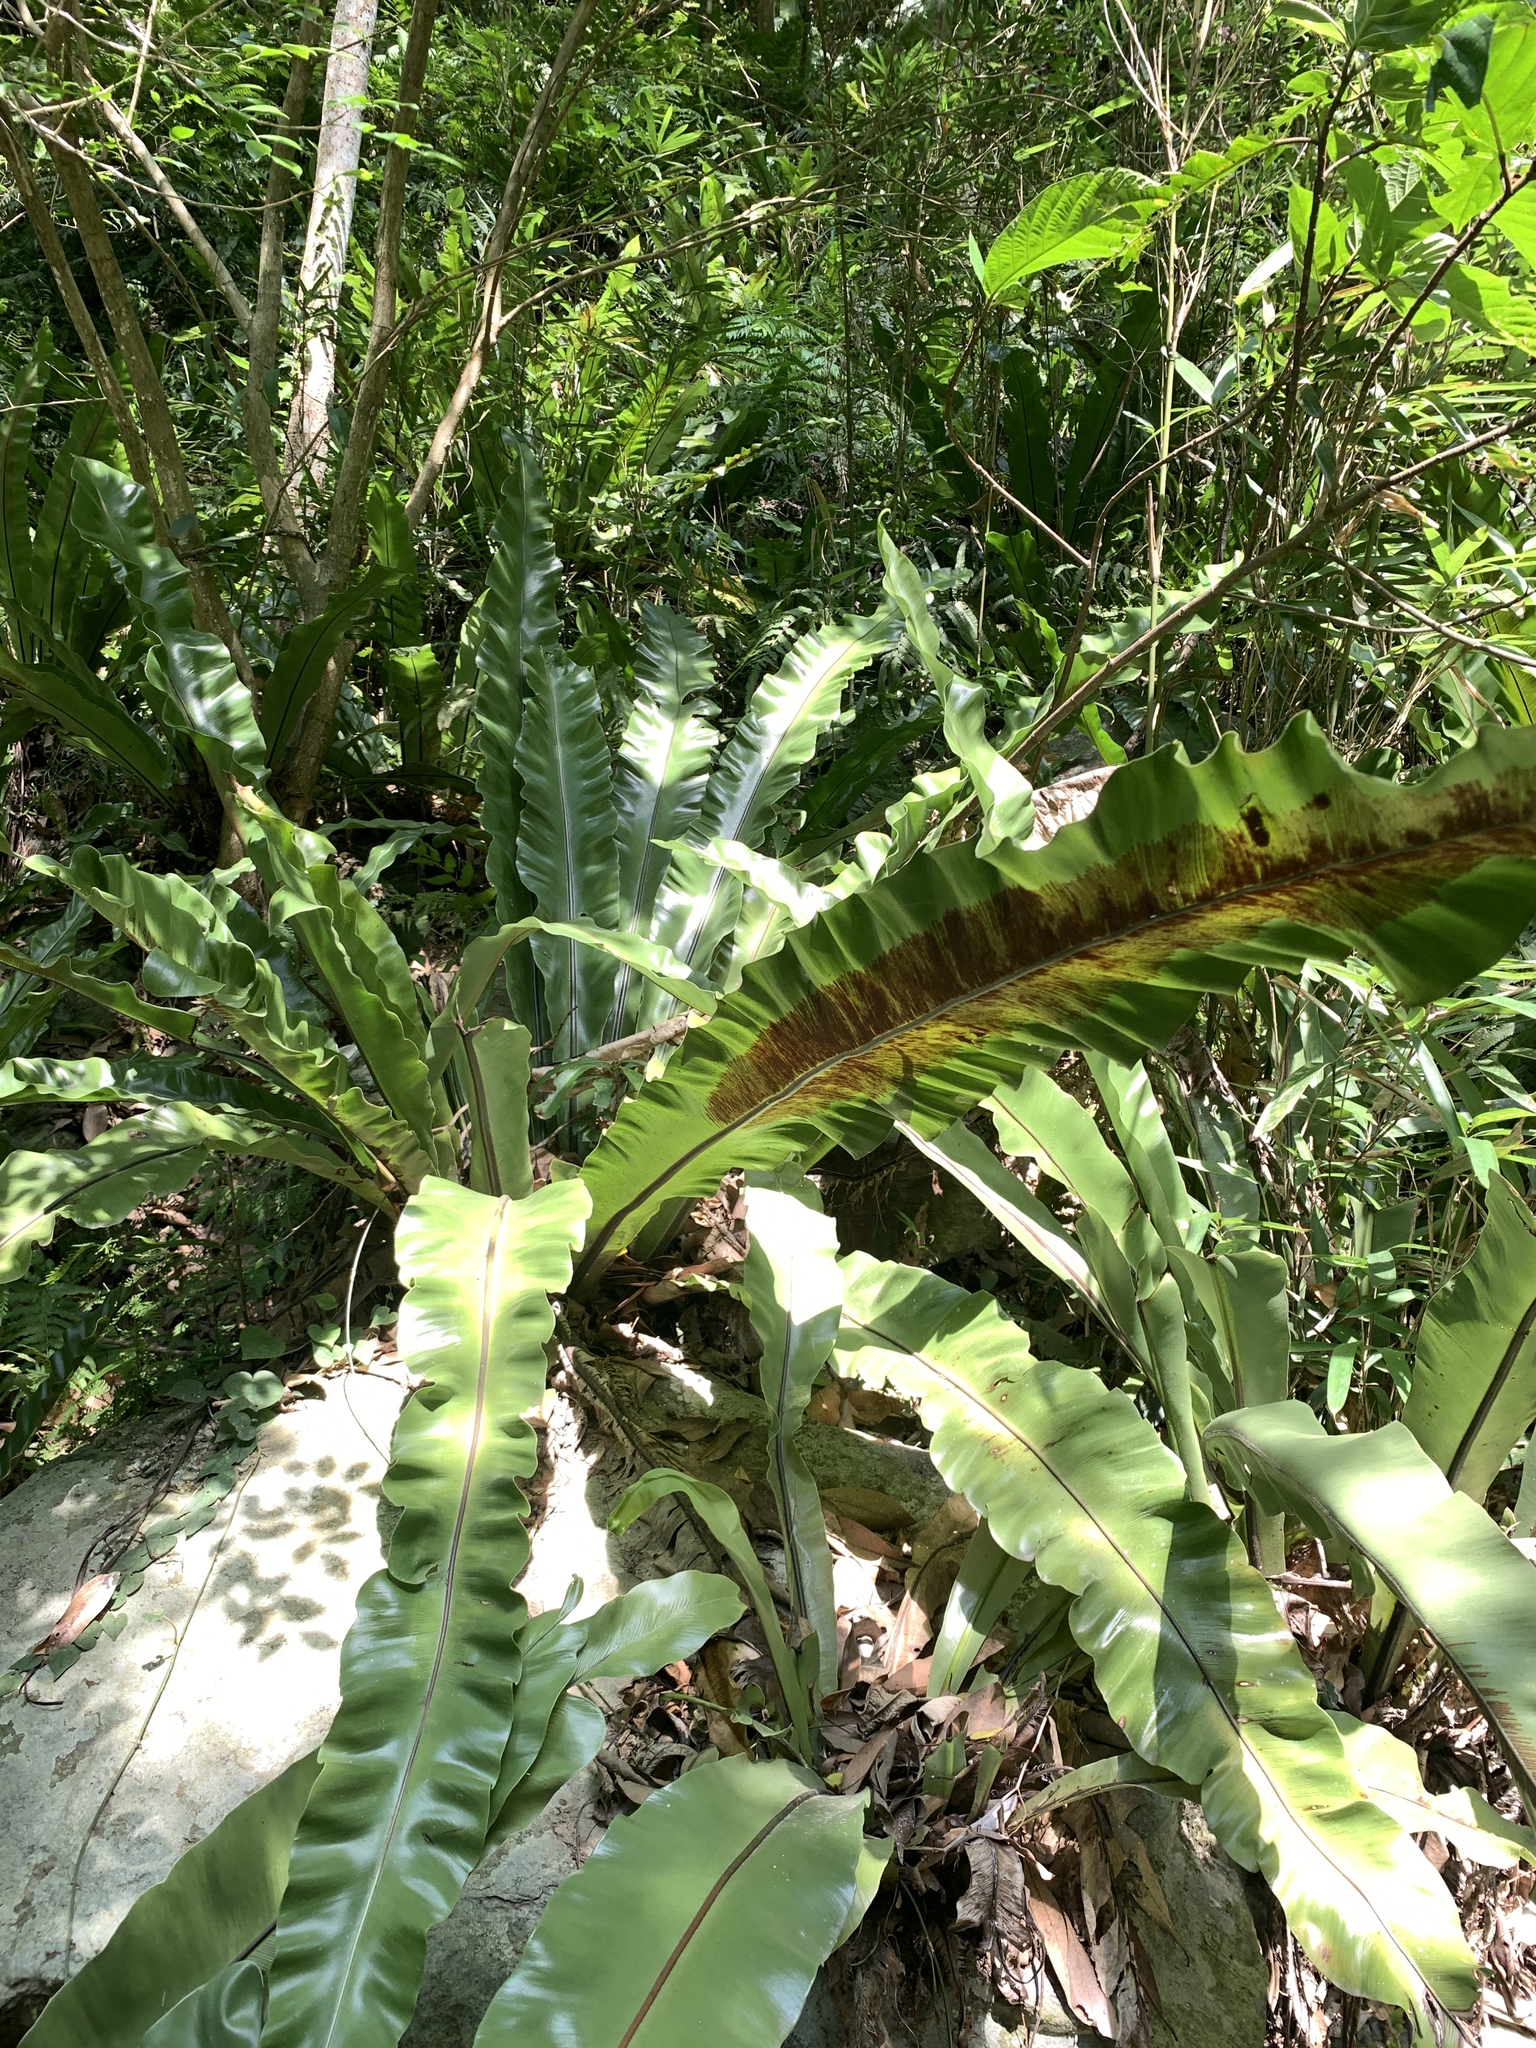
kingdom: Plantae
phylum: Tracheophyta
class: Polypodiopsida
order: Polypodiales
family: Aspleniaceae
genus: Asplenium
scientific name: Asplenium nidus
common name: Bird's-nest fern
